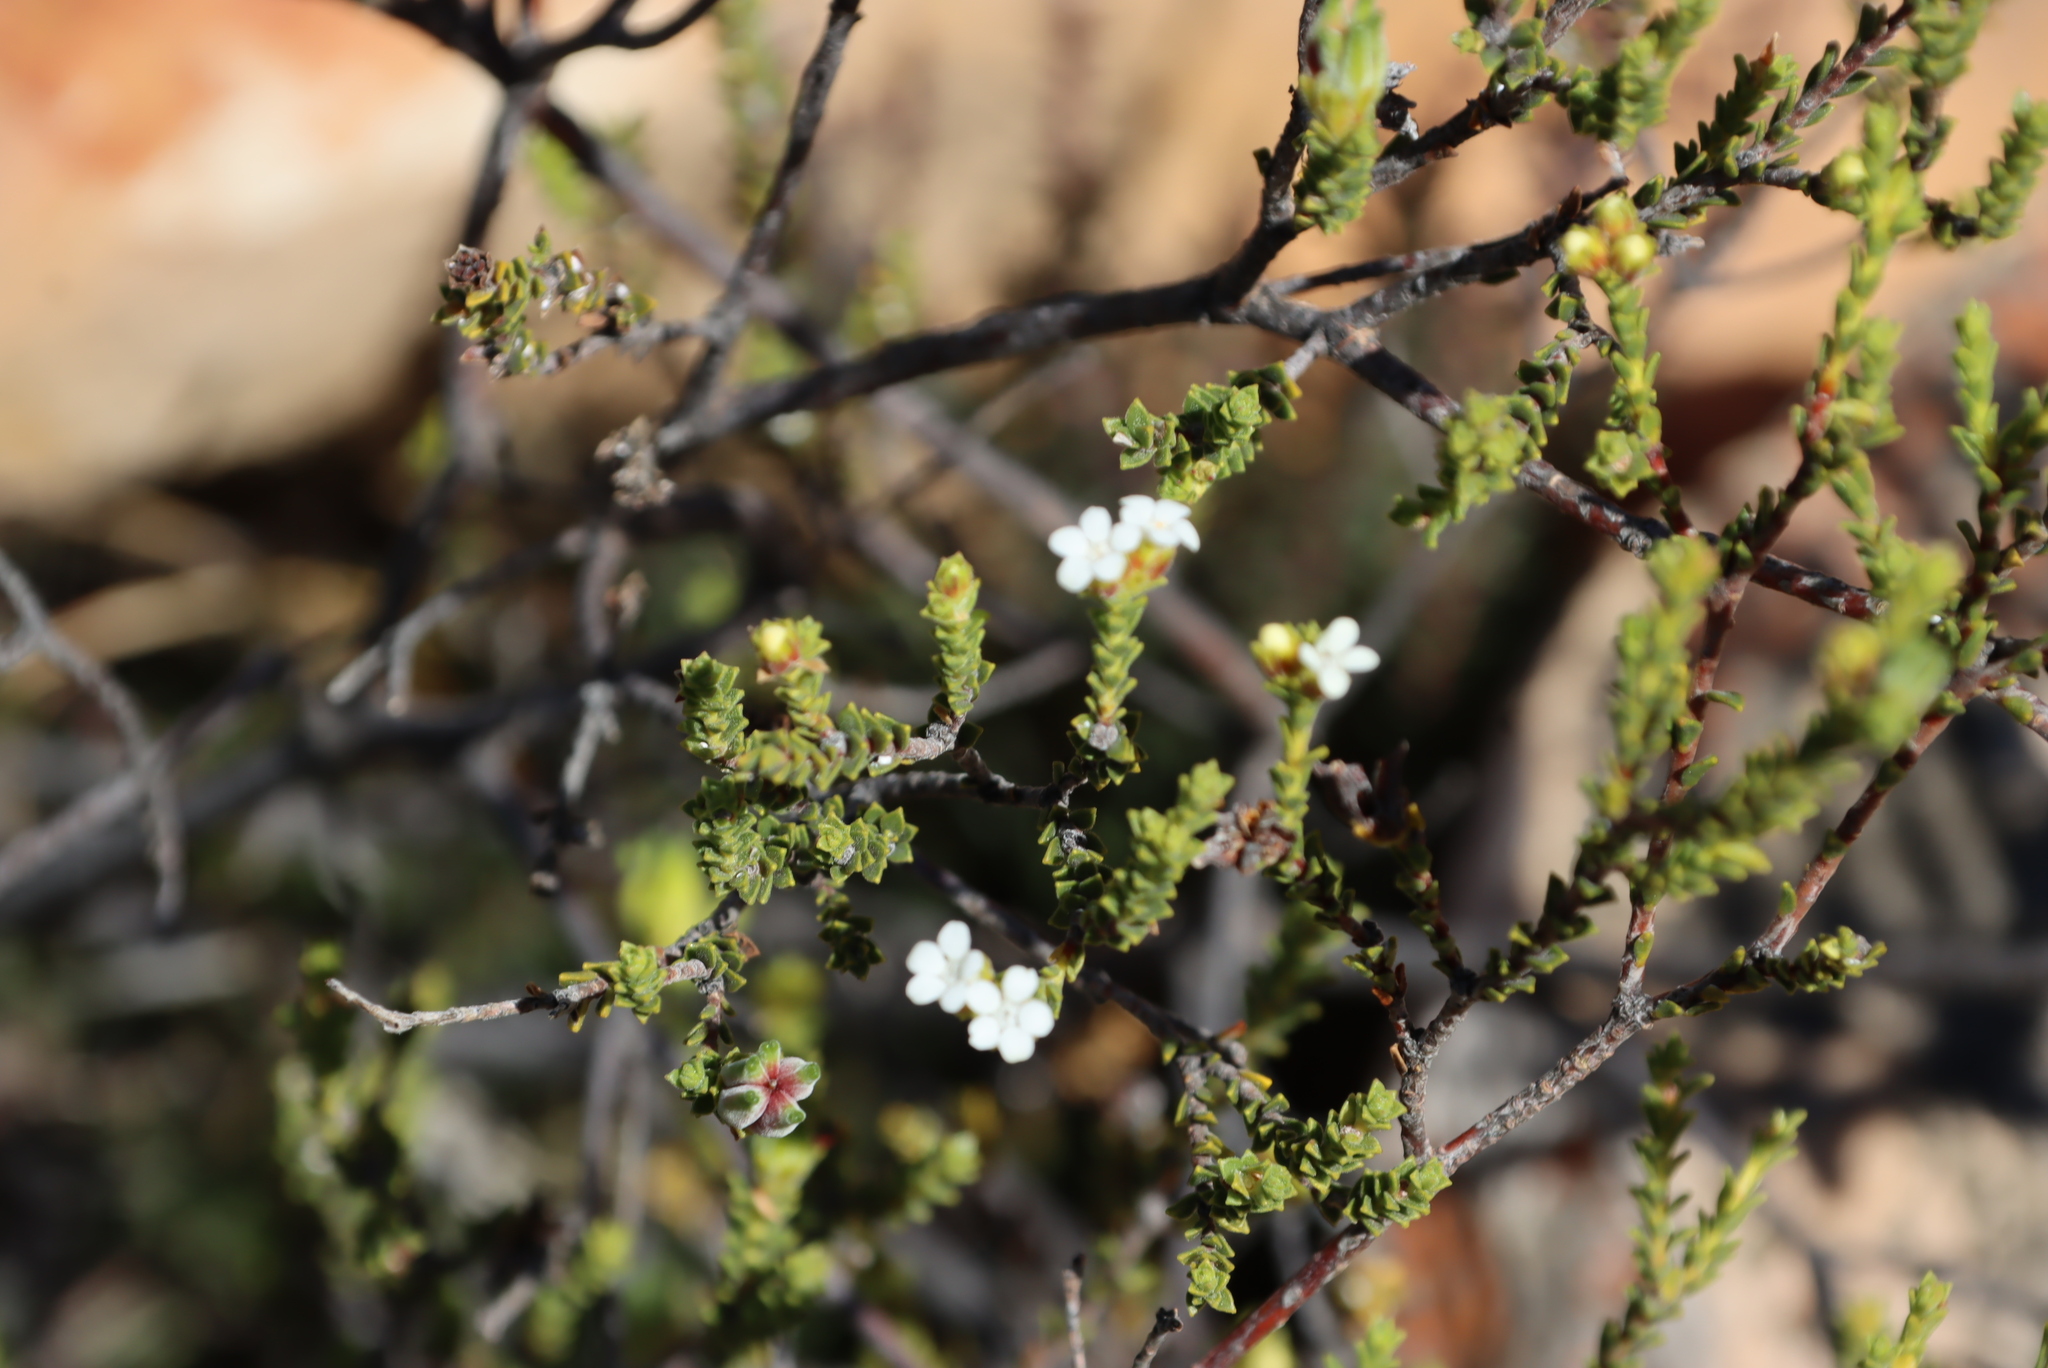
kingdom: Plantae
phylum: Tracheophyta
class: Magnoliopsida
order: Sapindales
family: Rutaceae
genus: Euchaetis
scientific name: Euchaetis vallis-simiae
